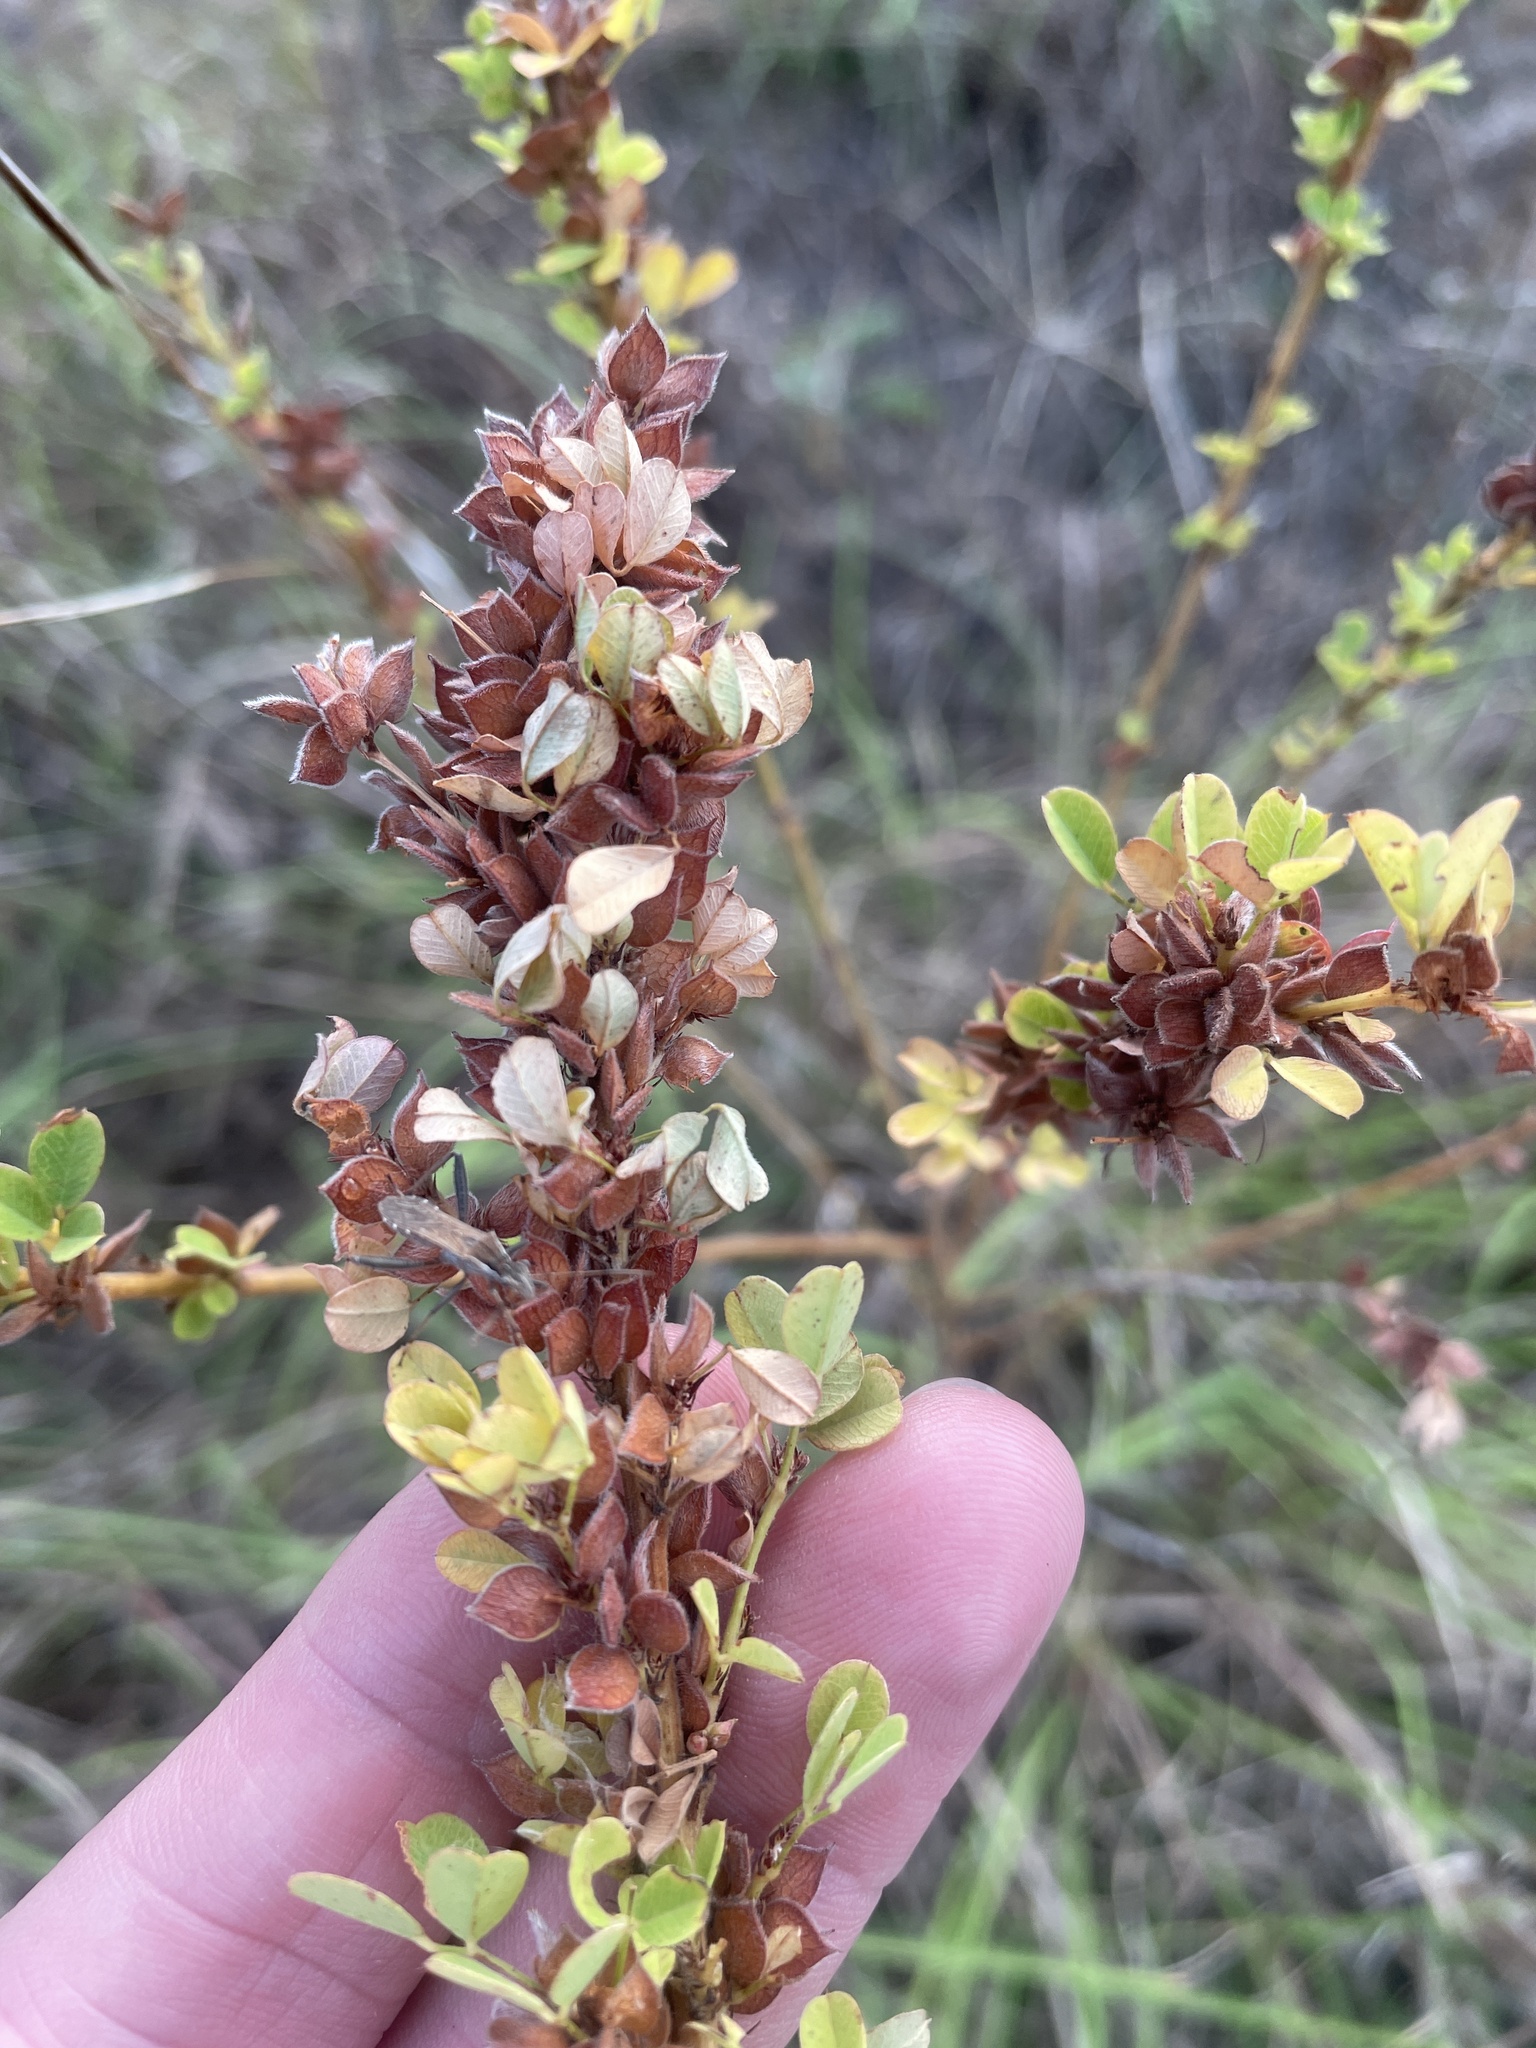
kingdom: Plantae
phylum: Tracheophyta
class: Magnoliopsida
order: Fabales
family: Fabaceae
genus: Lespedeza
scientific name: Lespedeza stuevei
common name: Tall bush-clover
